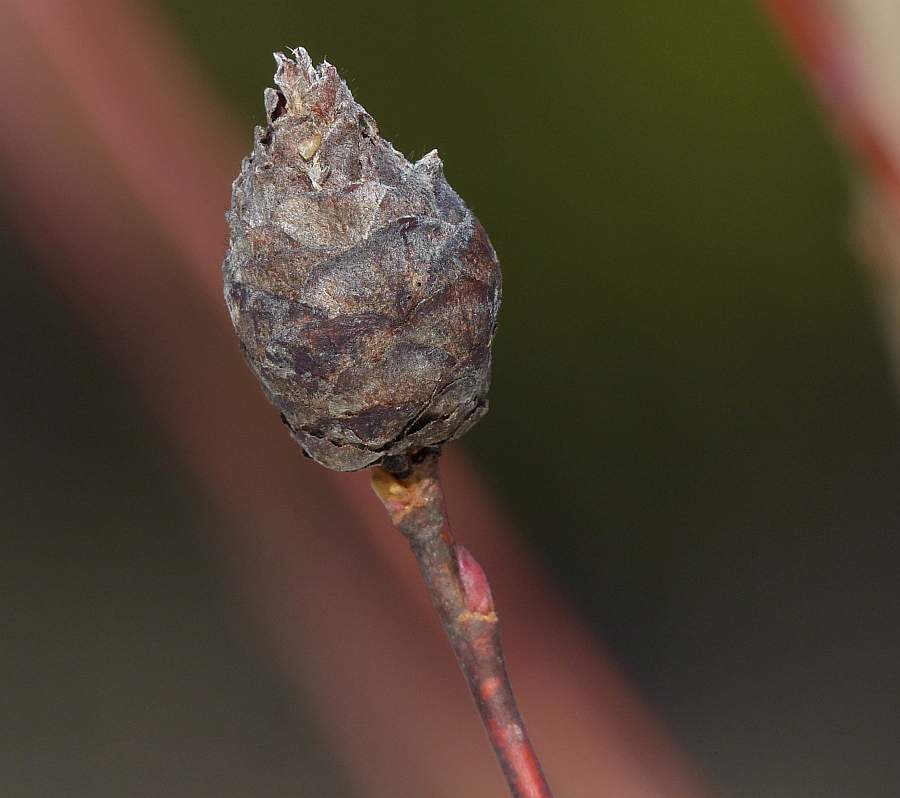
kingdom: Animalia
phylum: Arthropoda
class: Insecta
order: Diptera
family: Cecidomyiidae
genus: Rabdophaga
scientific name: Rabdophaga strobiloides
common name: Willow pinecone gall midge
